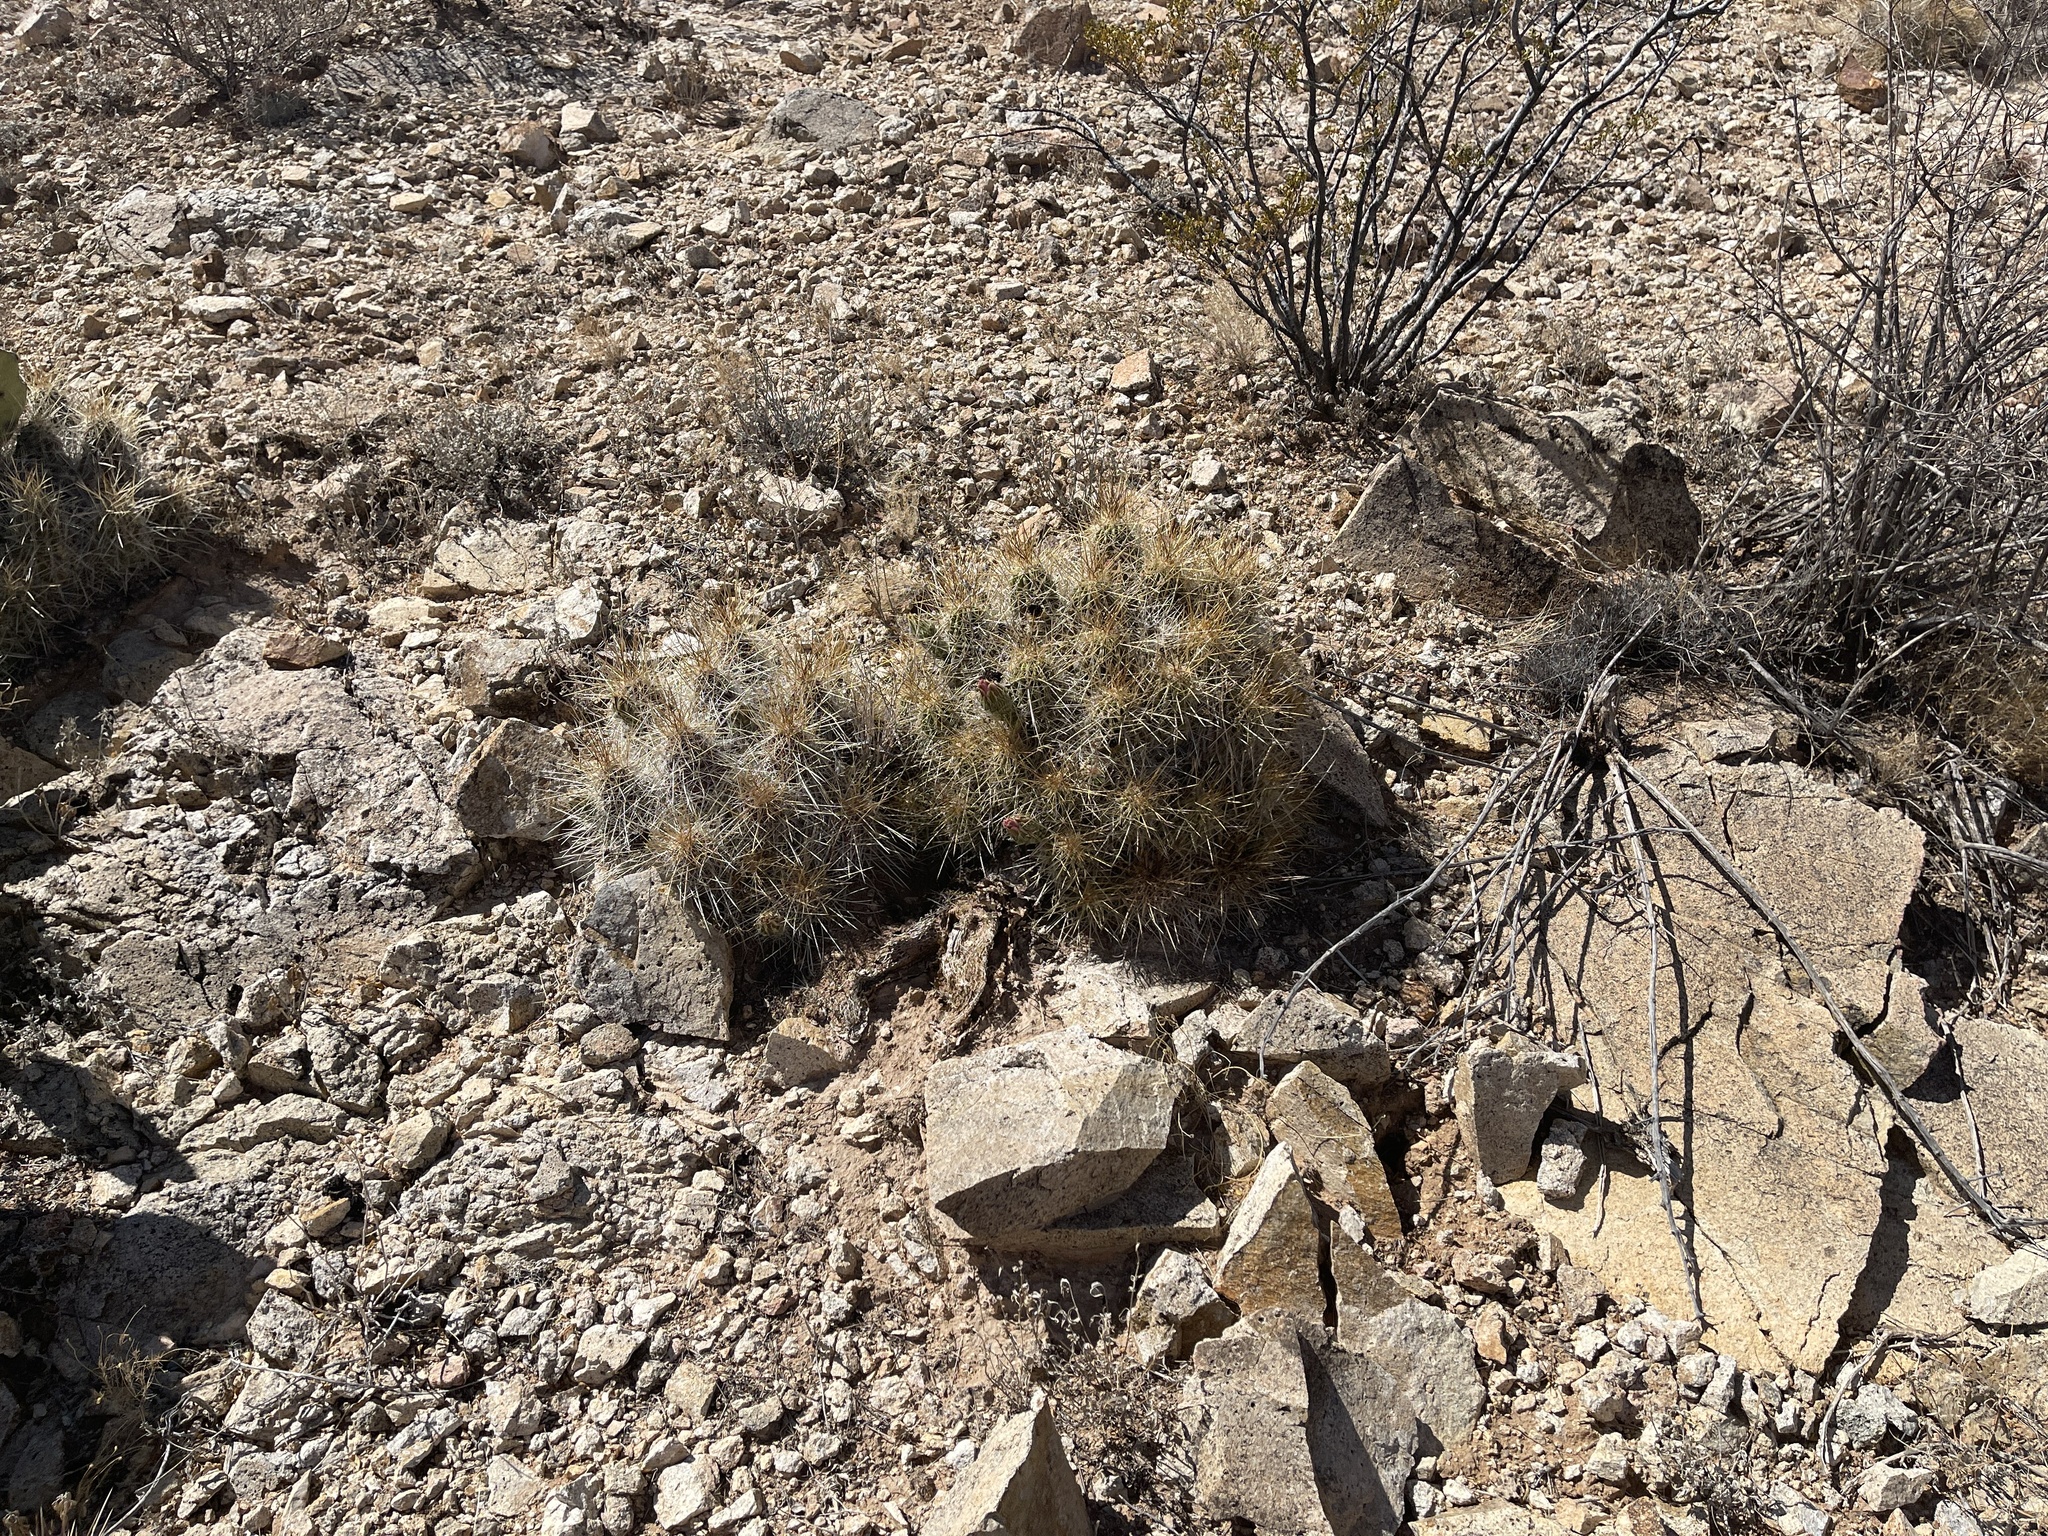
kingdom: Plantae
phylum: Tracheophyta
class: Magnoliopsida
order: Caryophyllales
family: Cactaceae
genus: Echinocereus
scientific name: Echinocereus stramineus
